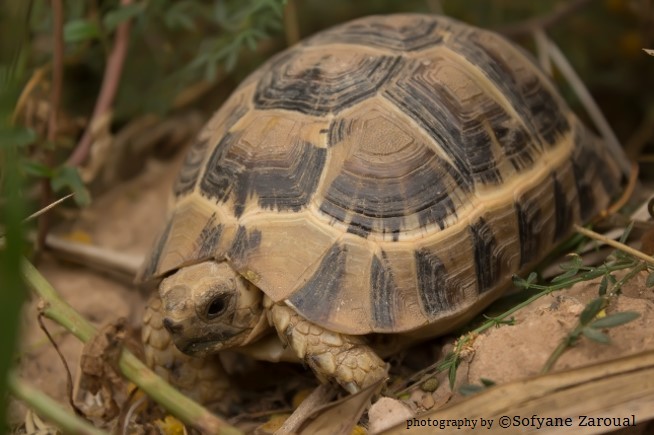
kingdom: Animalia
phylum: Chordata
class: Testudines
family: Testudinidae
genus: Testudo
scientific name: Testudo graeca
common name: Common tortoise
